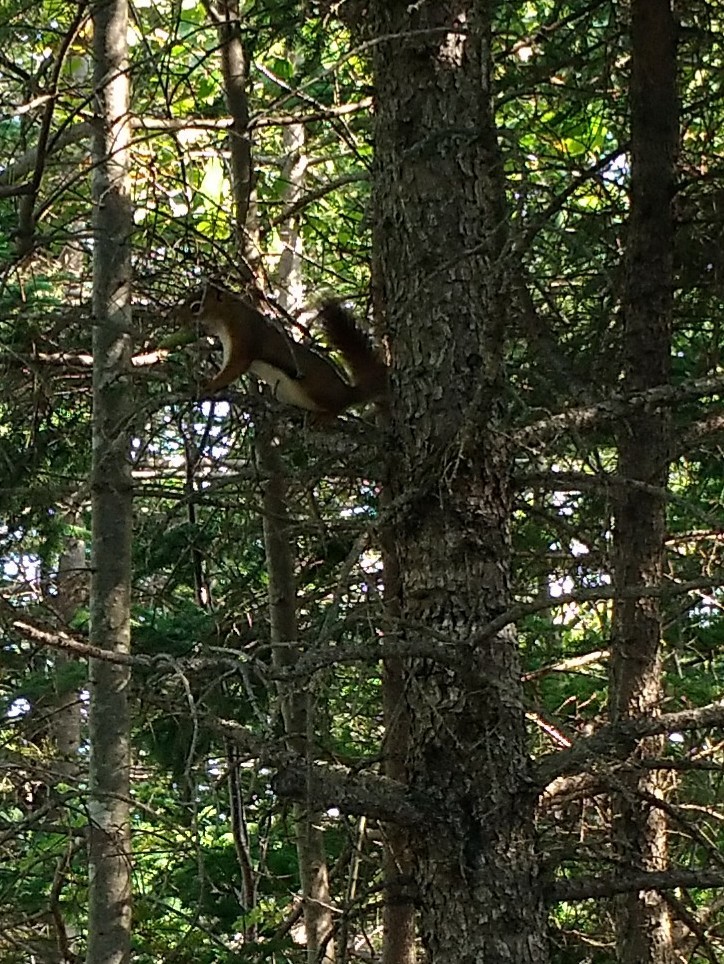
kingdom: Animalia
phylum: Chordata
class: Mammalia
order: Rodentia
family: Sciuridae
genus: Tamiasciurus
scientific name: Tamiasciurus hudsonicus
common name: Red squirrel
